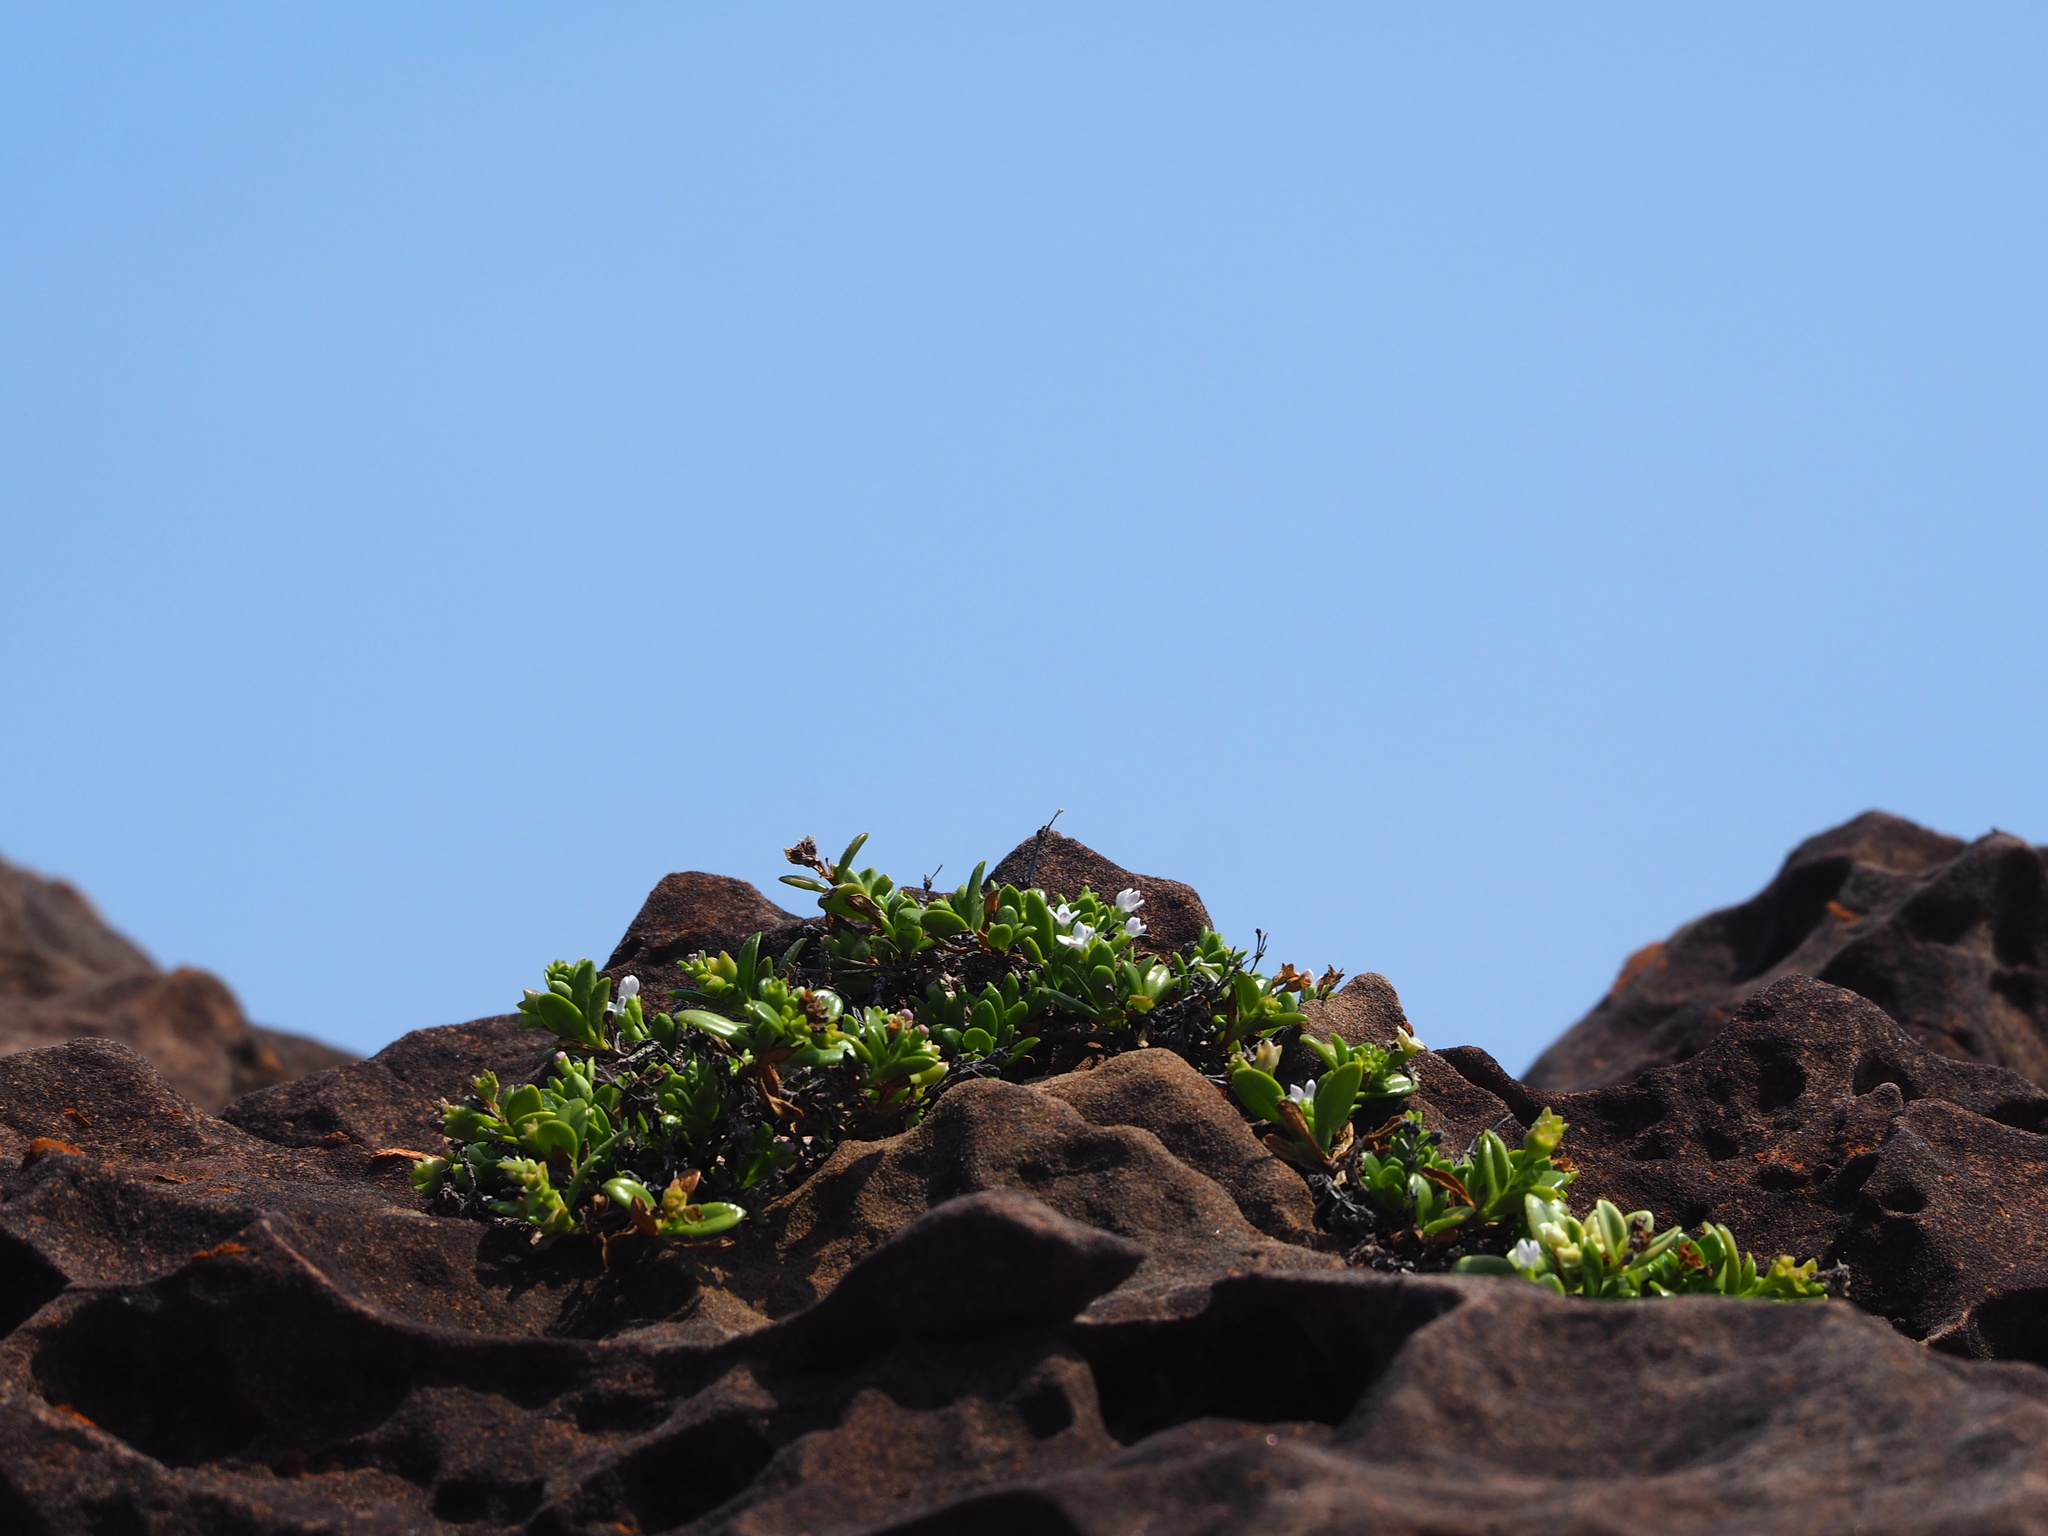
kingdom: Plantae
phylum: Tracheophyta
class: Magnoliopsida
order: Gentianales
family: Rubiaceae
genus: Leptopetalum
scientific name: Leptopetalum strigulosum
